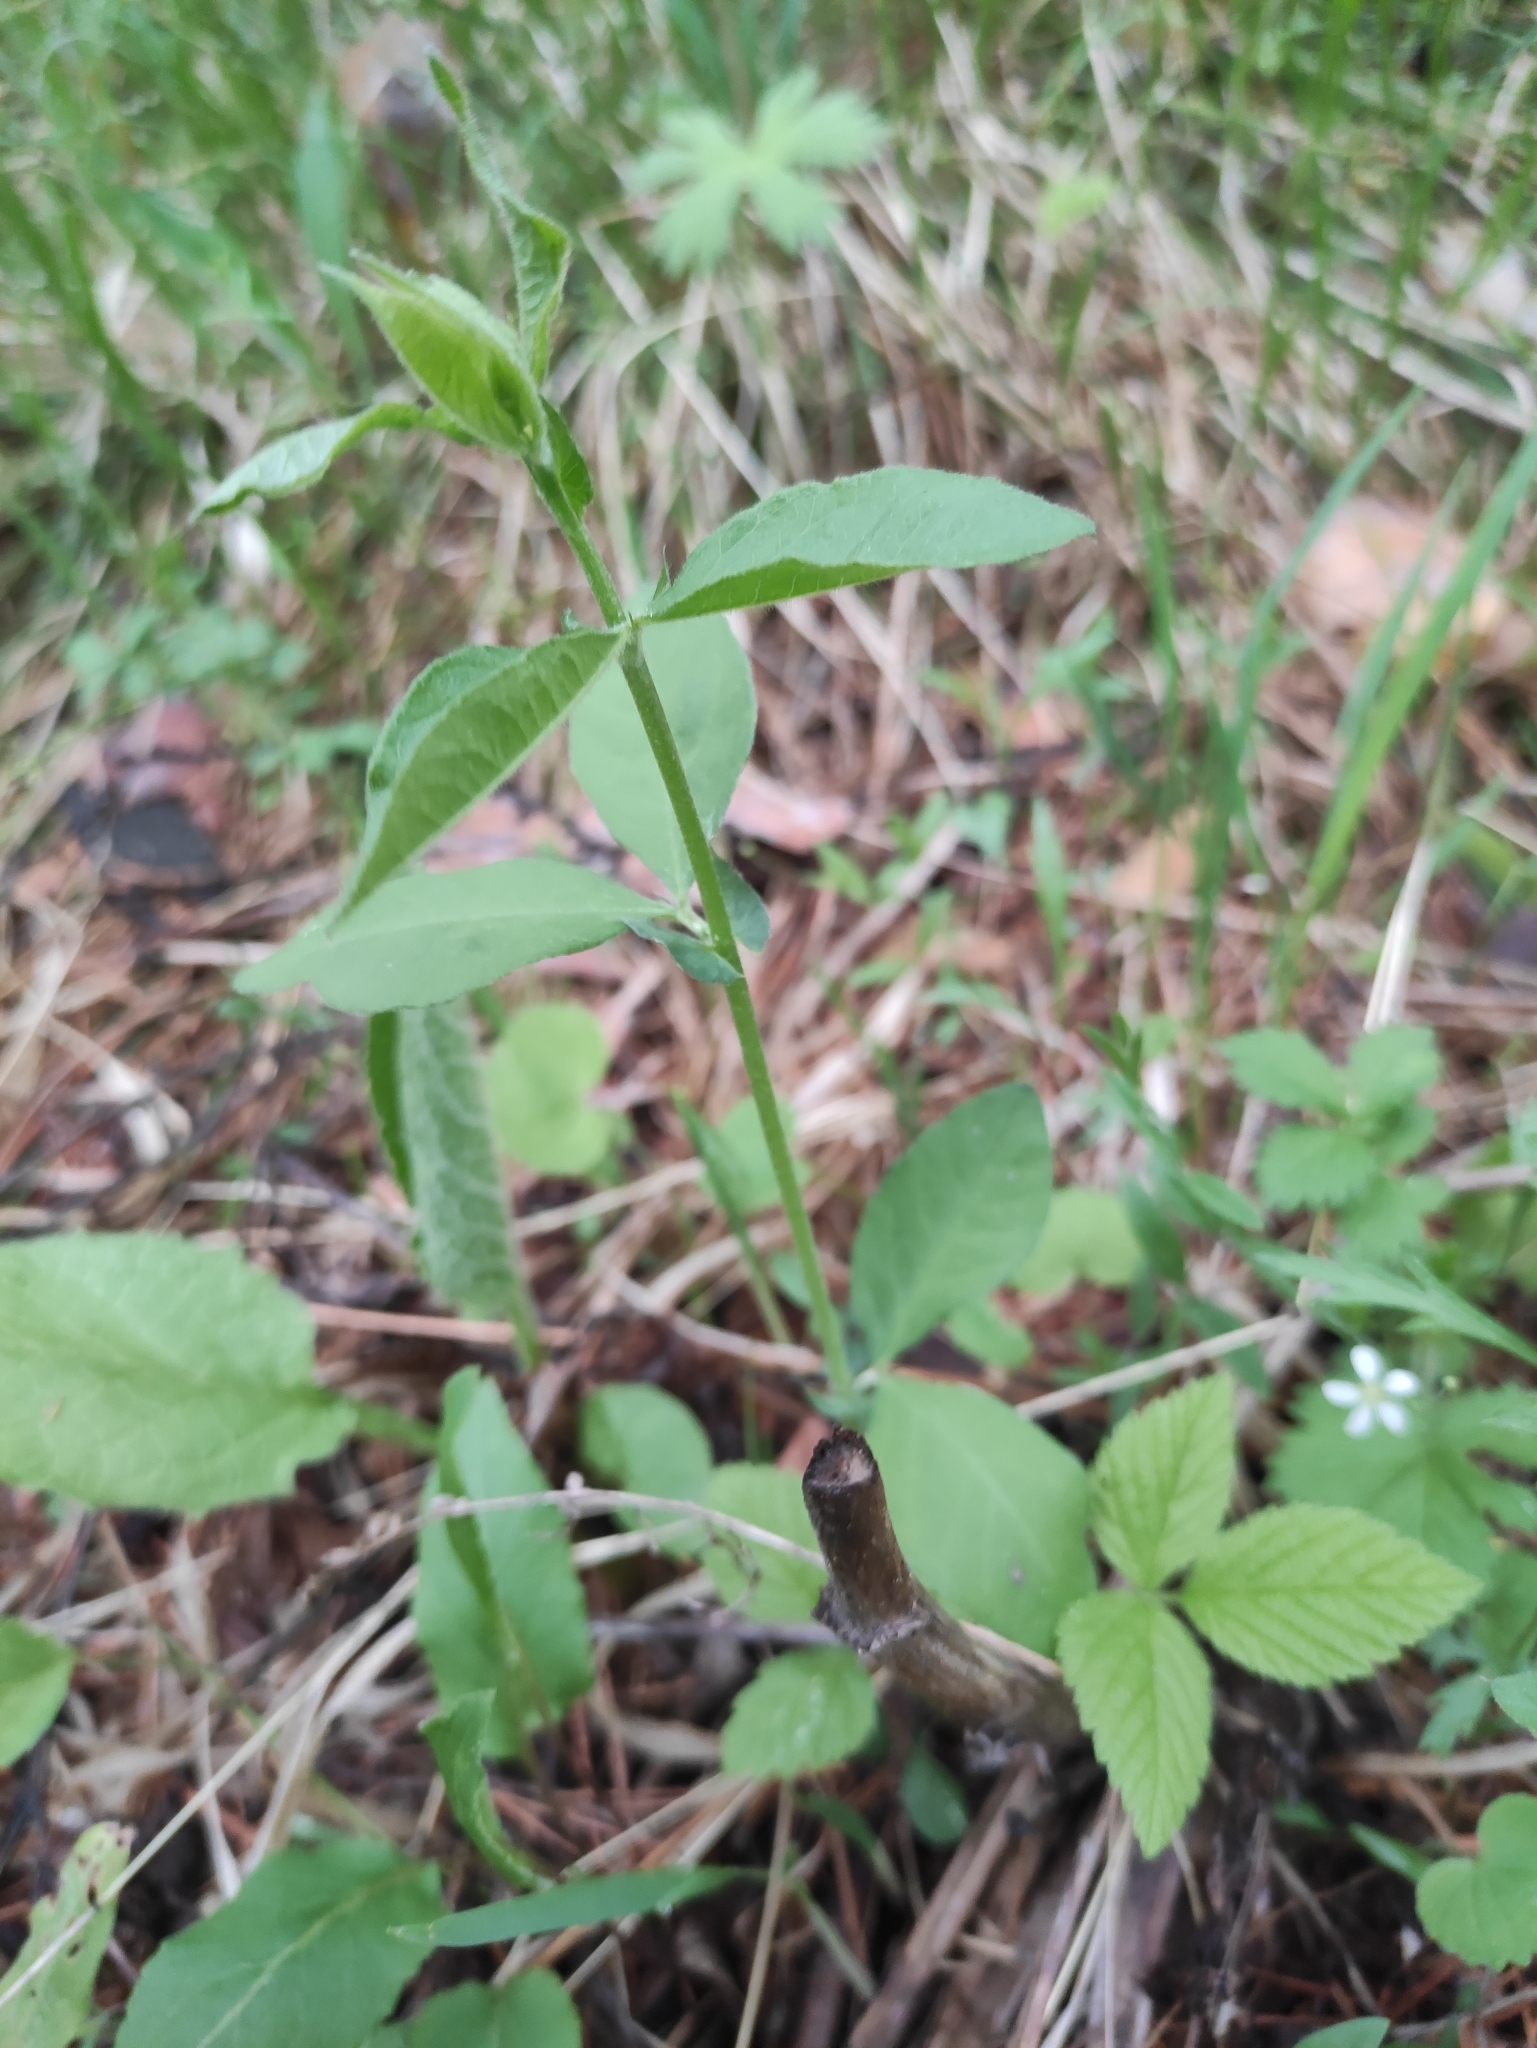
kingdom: Plantae
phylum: Tracheophyta
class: Magnoliopsida
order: Fabales
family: Fabaceae
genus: Vicia
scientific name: Vicia unijuga
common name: Two-leaf vetch
